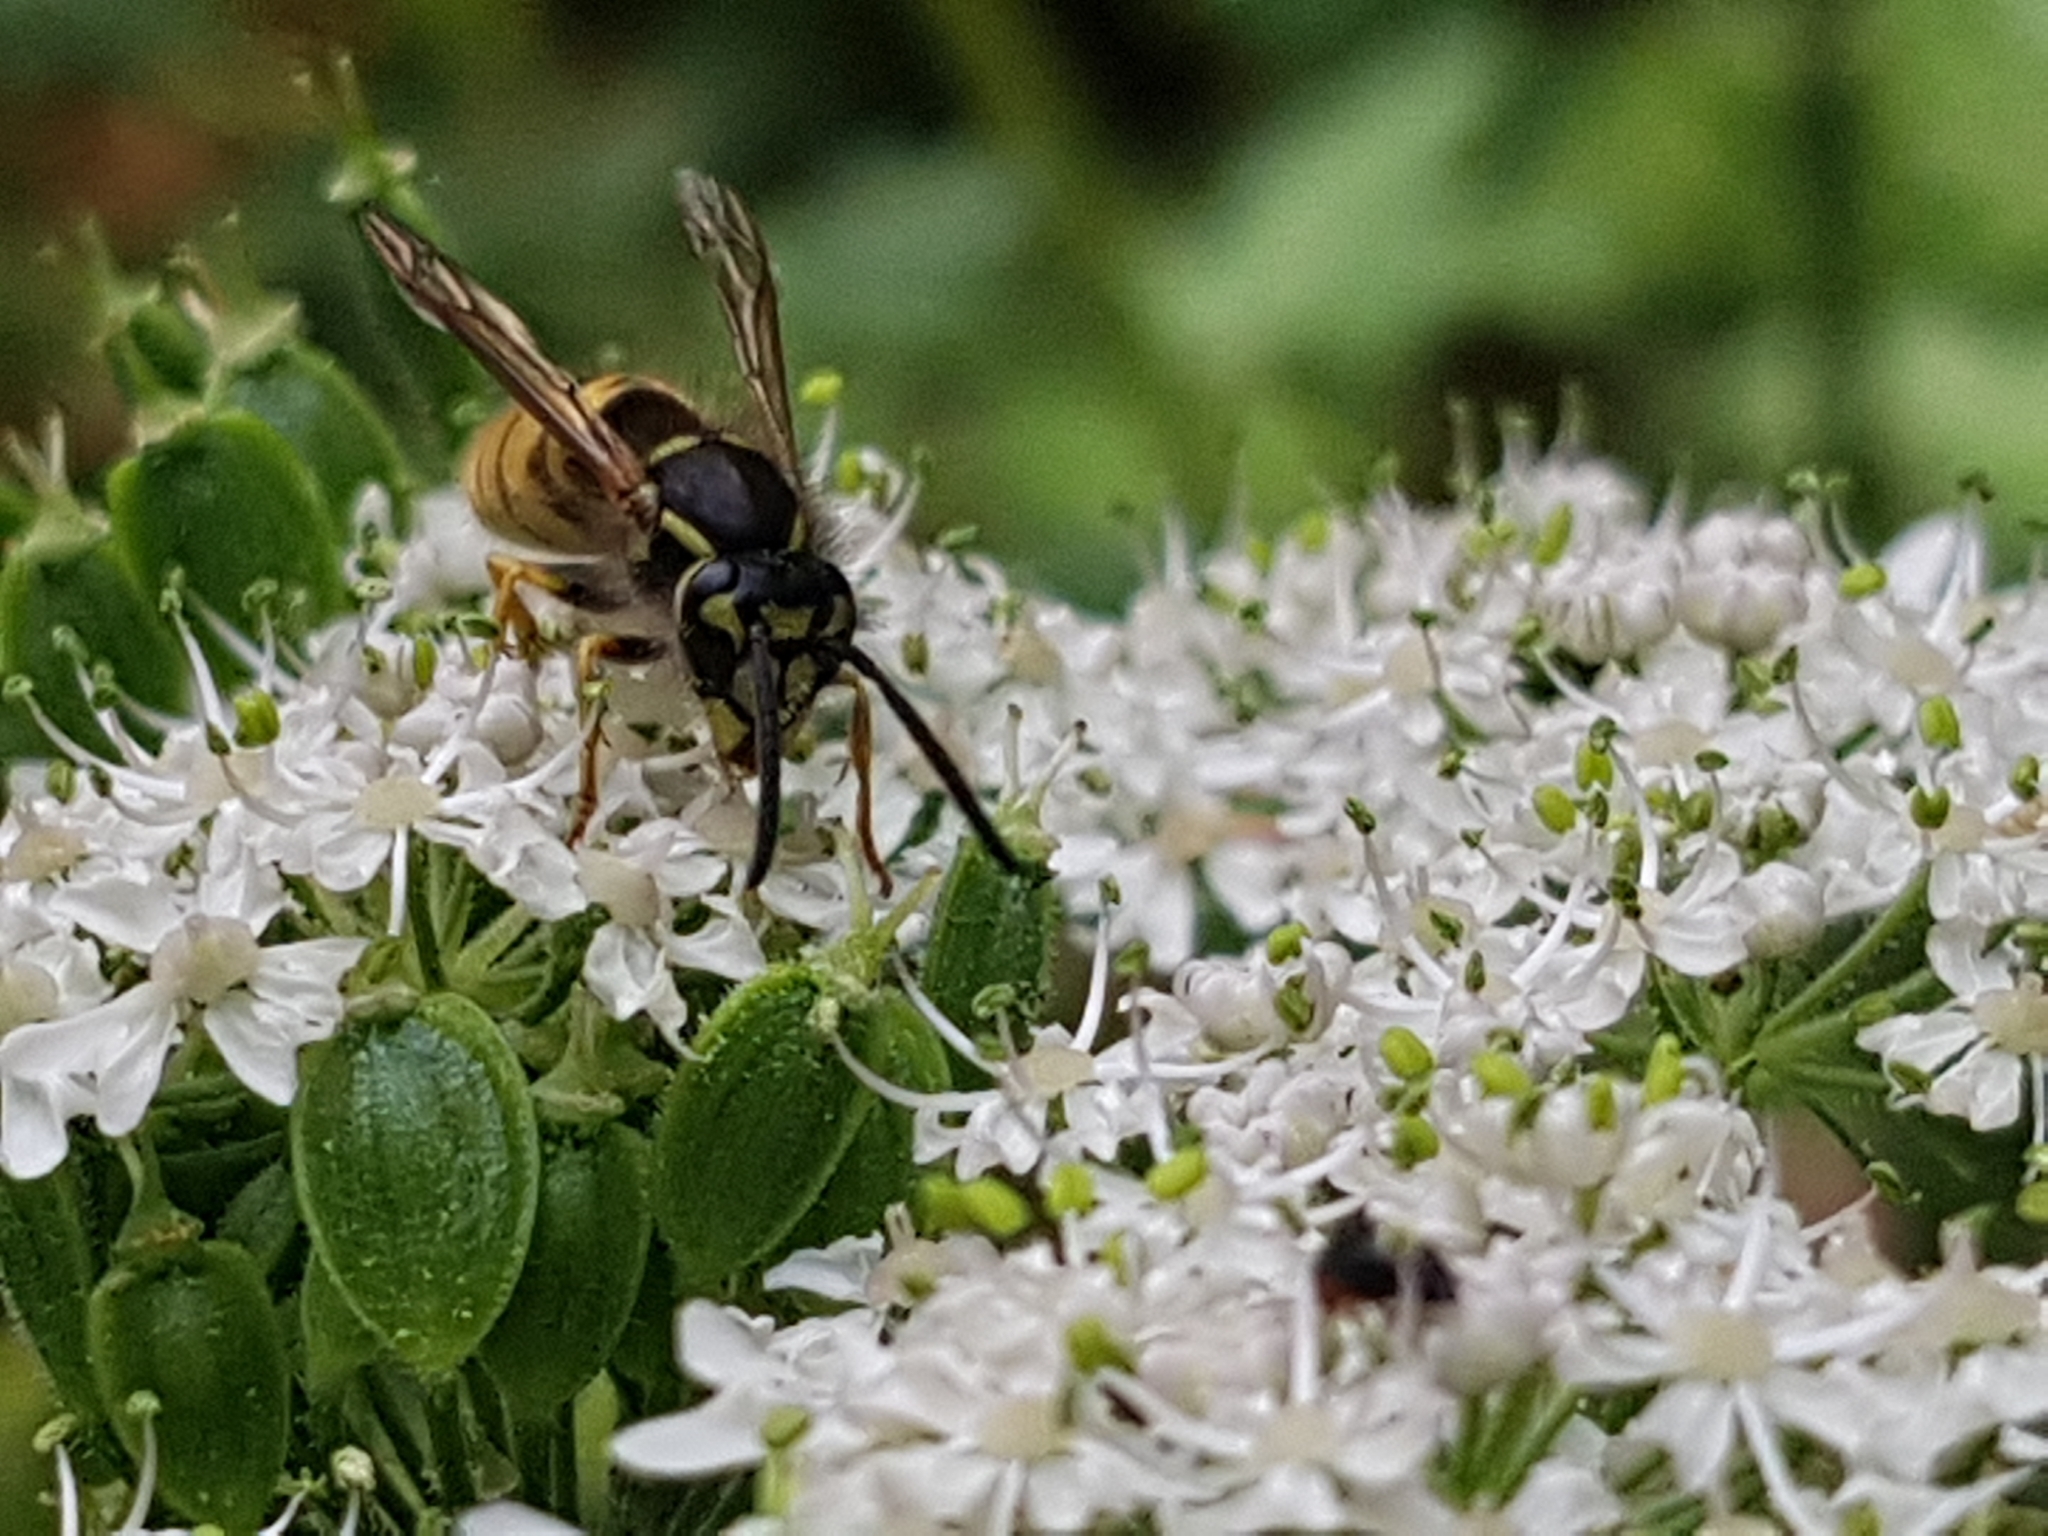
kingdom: Animalia
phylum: Arthropoda
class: Insecta
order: Hymenoptera
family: Vespidae
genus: Vespula
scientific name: Vespula vulgaris
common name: Common wasp
